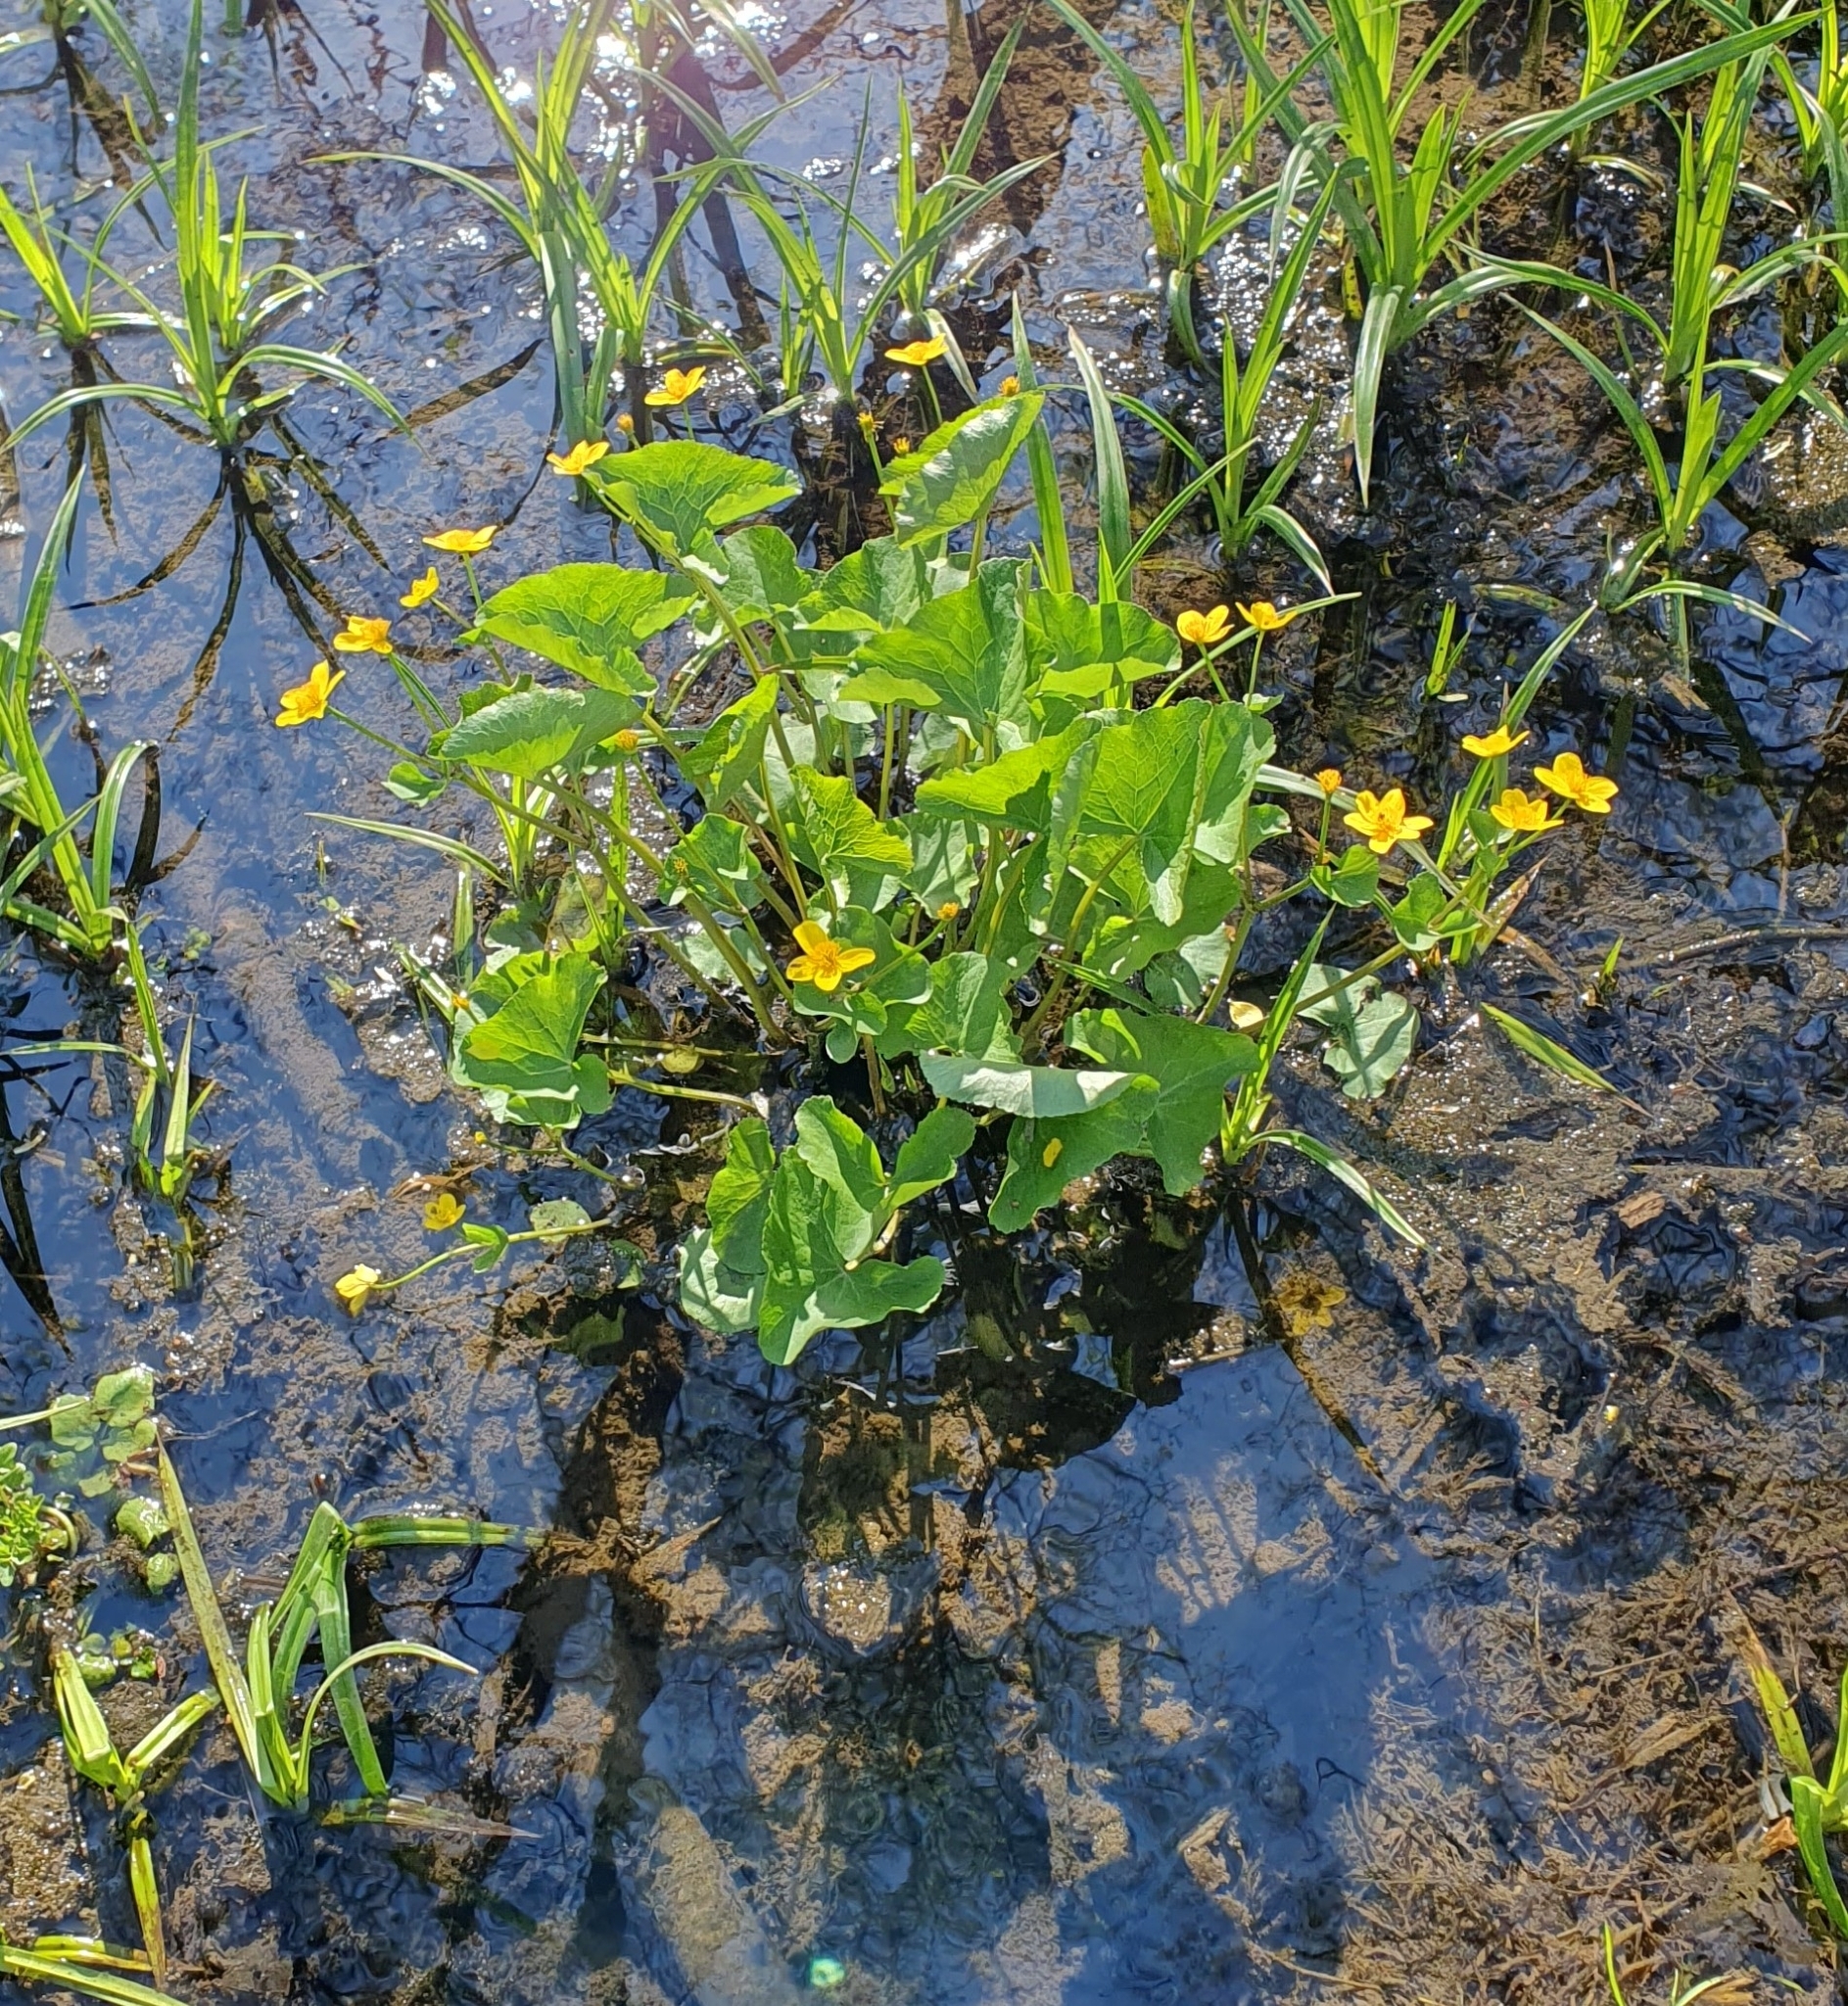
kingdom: Plantae
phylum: Tracheophyta
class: Magnoliopsida
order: Ranunculales
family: Ranunculaceae
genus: Caltha
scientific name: Caltha palustris
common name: Marsh marigold
